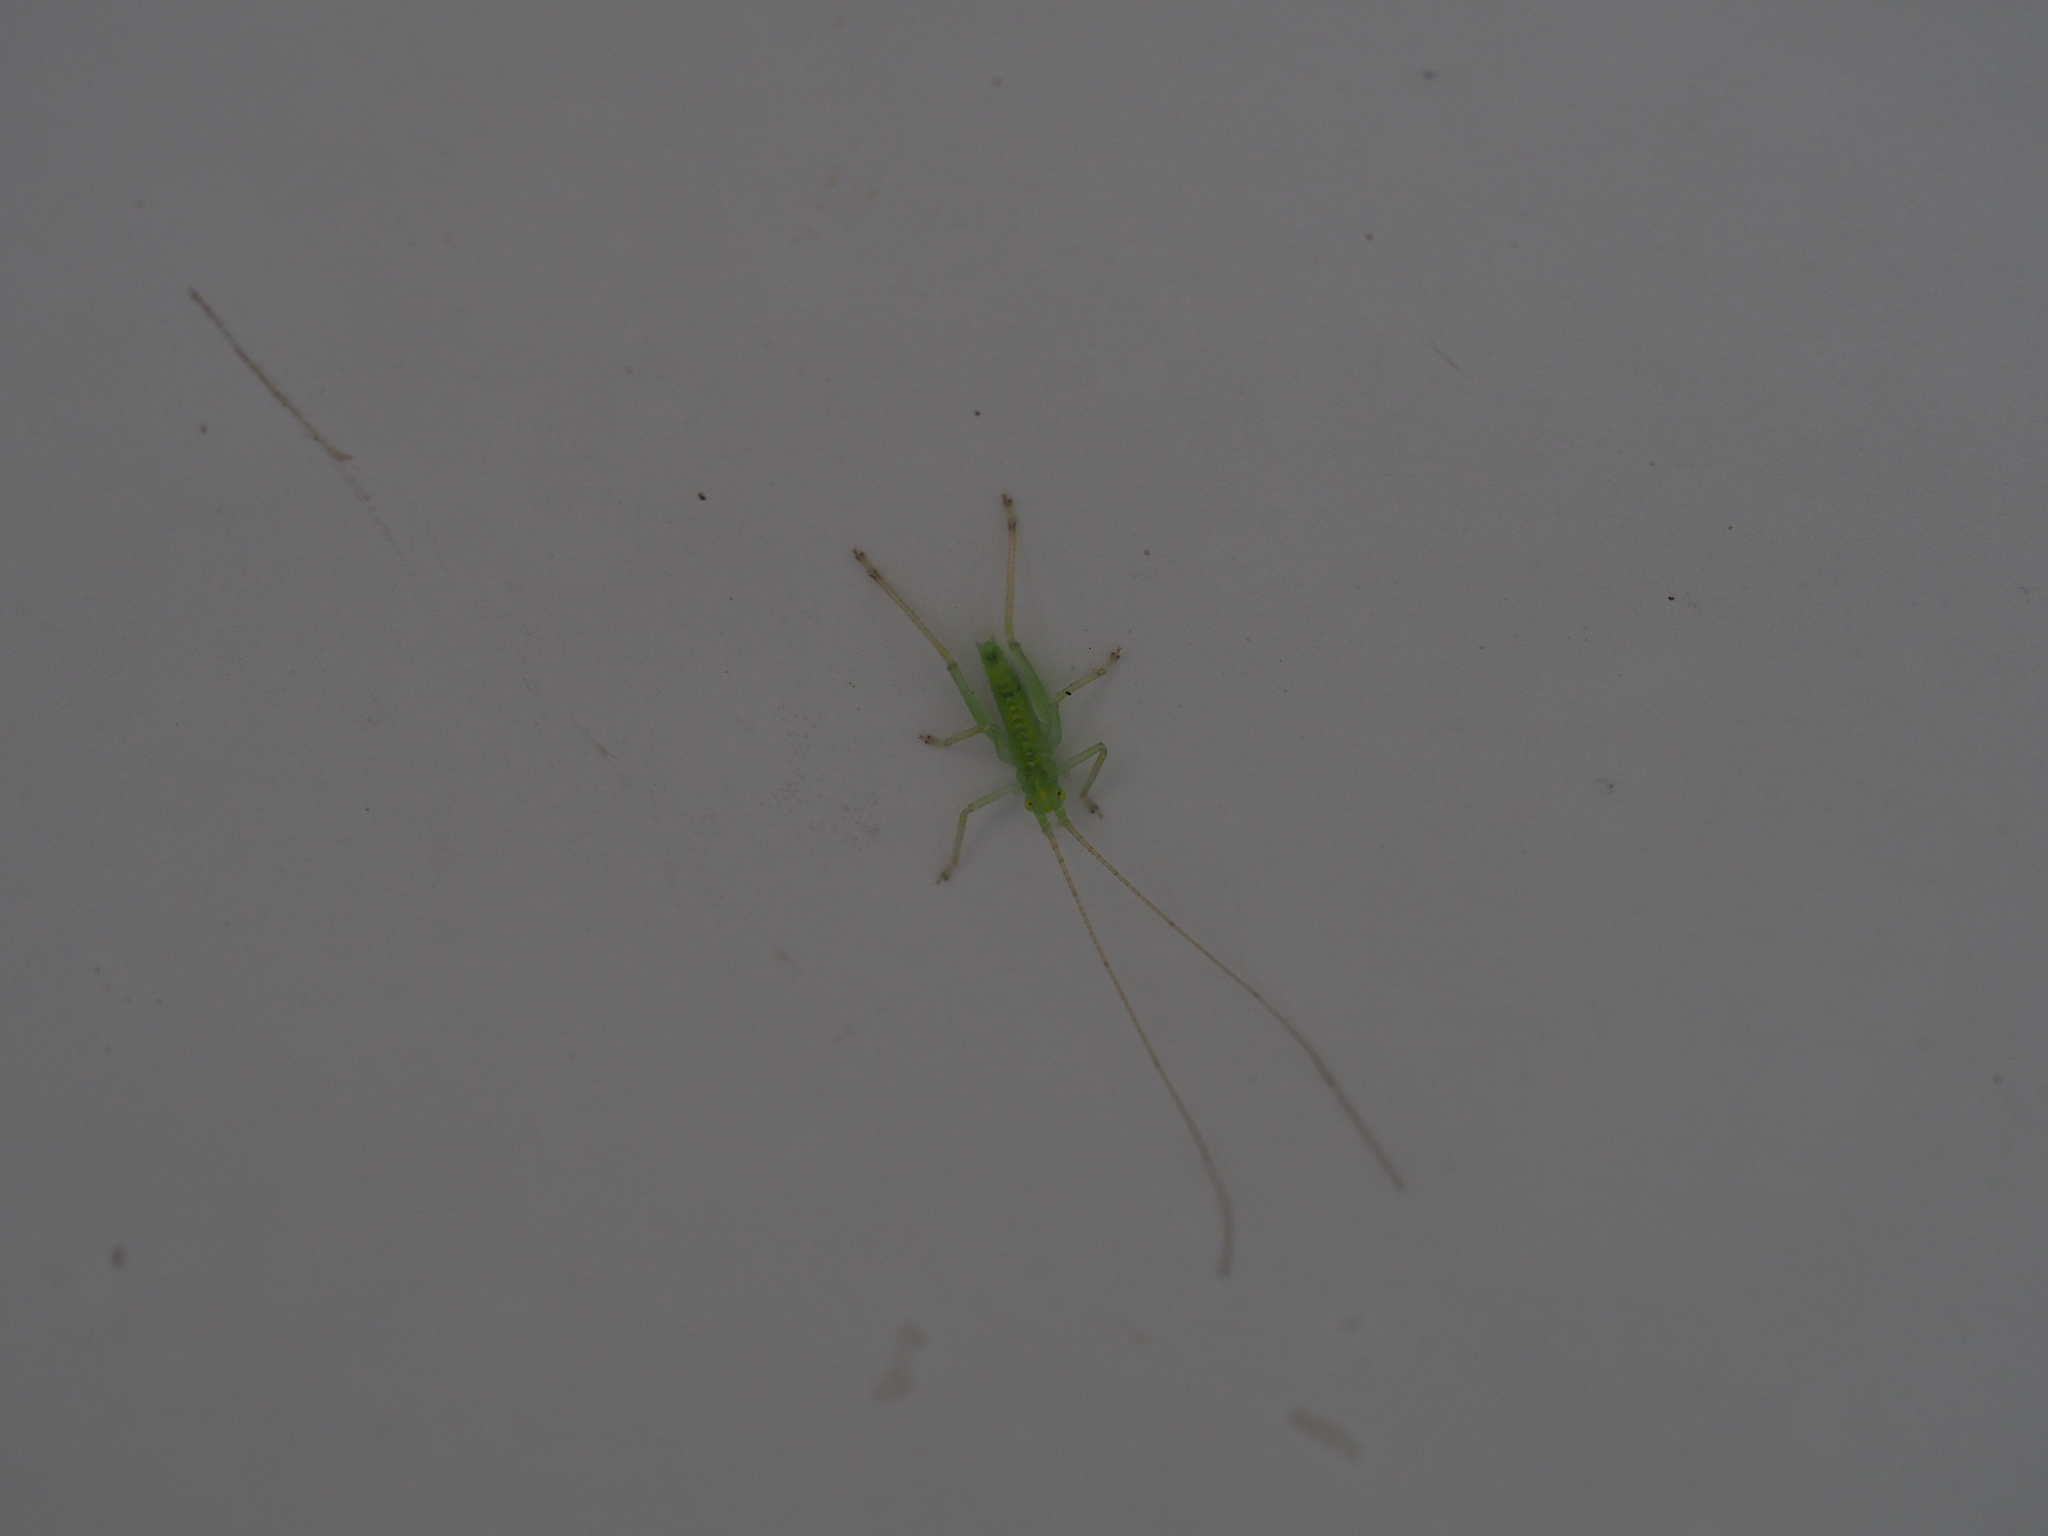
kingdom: Animalia
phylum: Arthropoda
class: Insecta
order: Orthoptera
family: Tettigoniidae
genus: Meconema
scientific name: Meconema meridionale
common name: Southern oak bush-cricket
